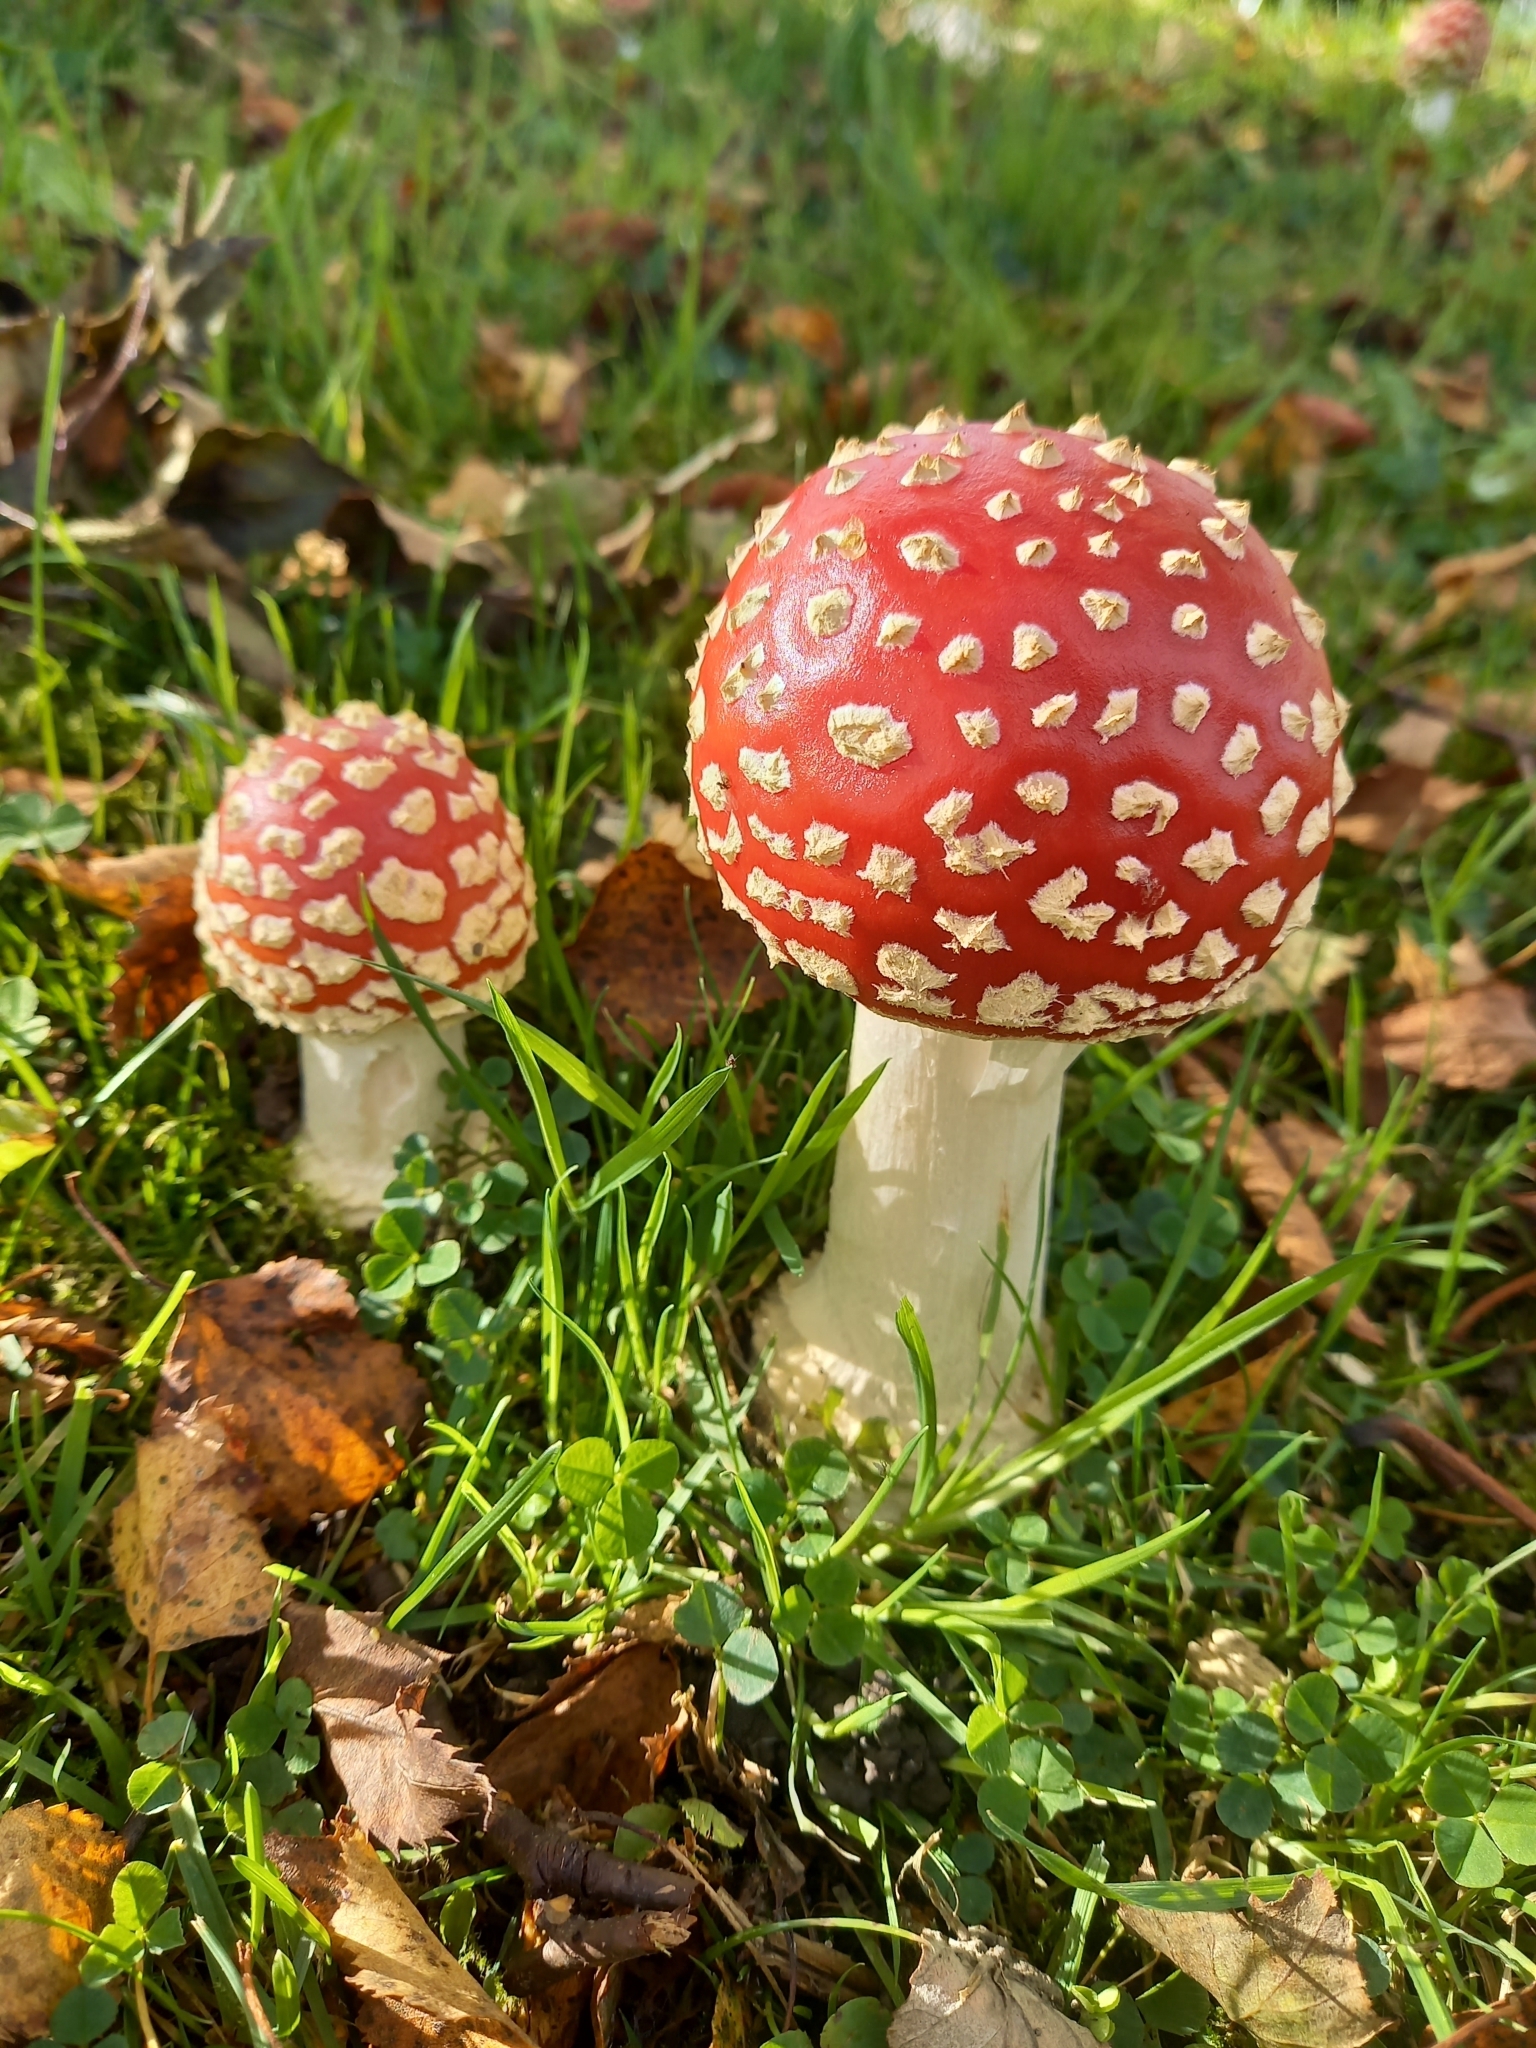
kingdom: Fungi
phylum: Basidiomycota
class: Agaricomycetes
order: Agaricales
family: Amanitaceae
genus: Amanita
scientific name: Amanita muscaria
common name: Fly agaric
